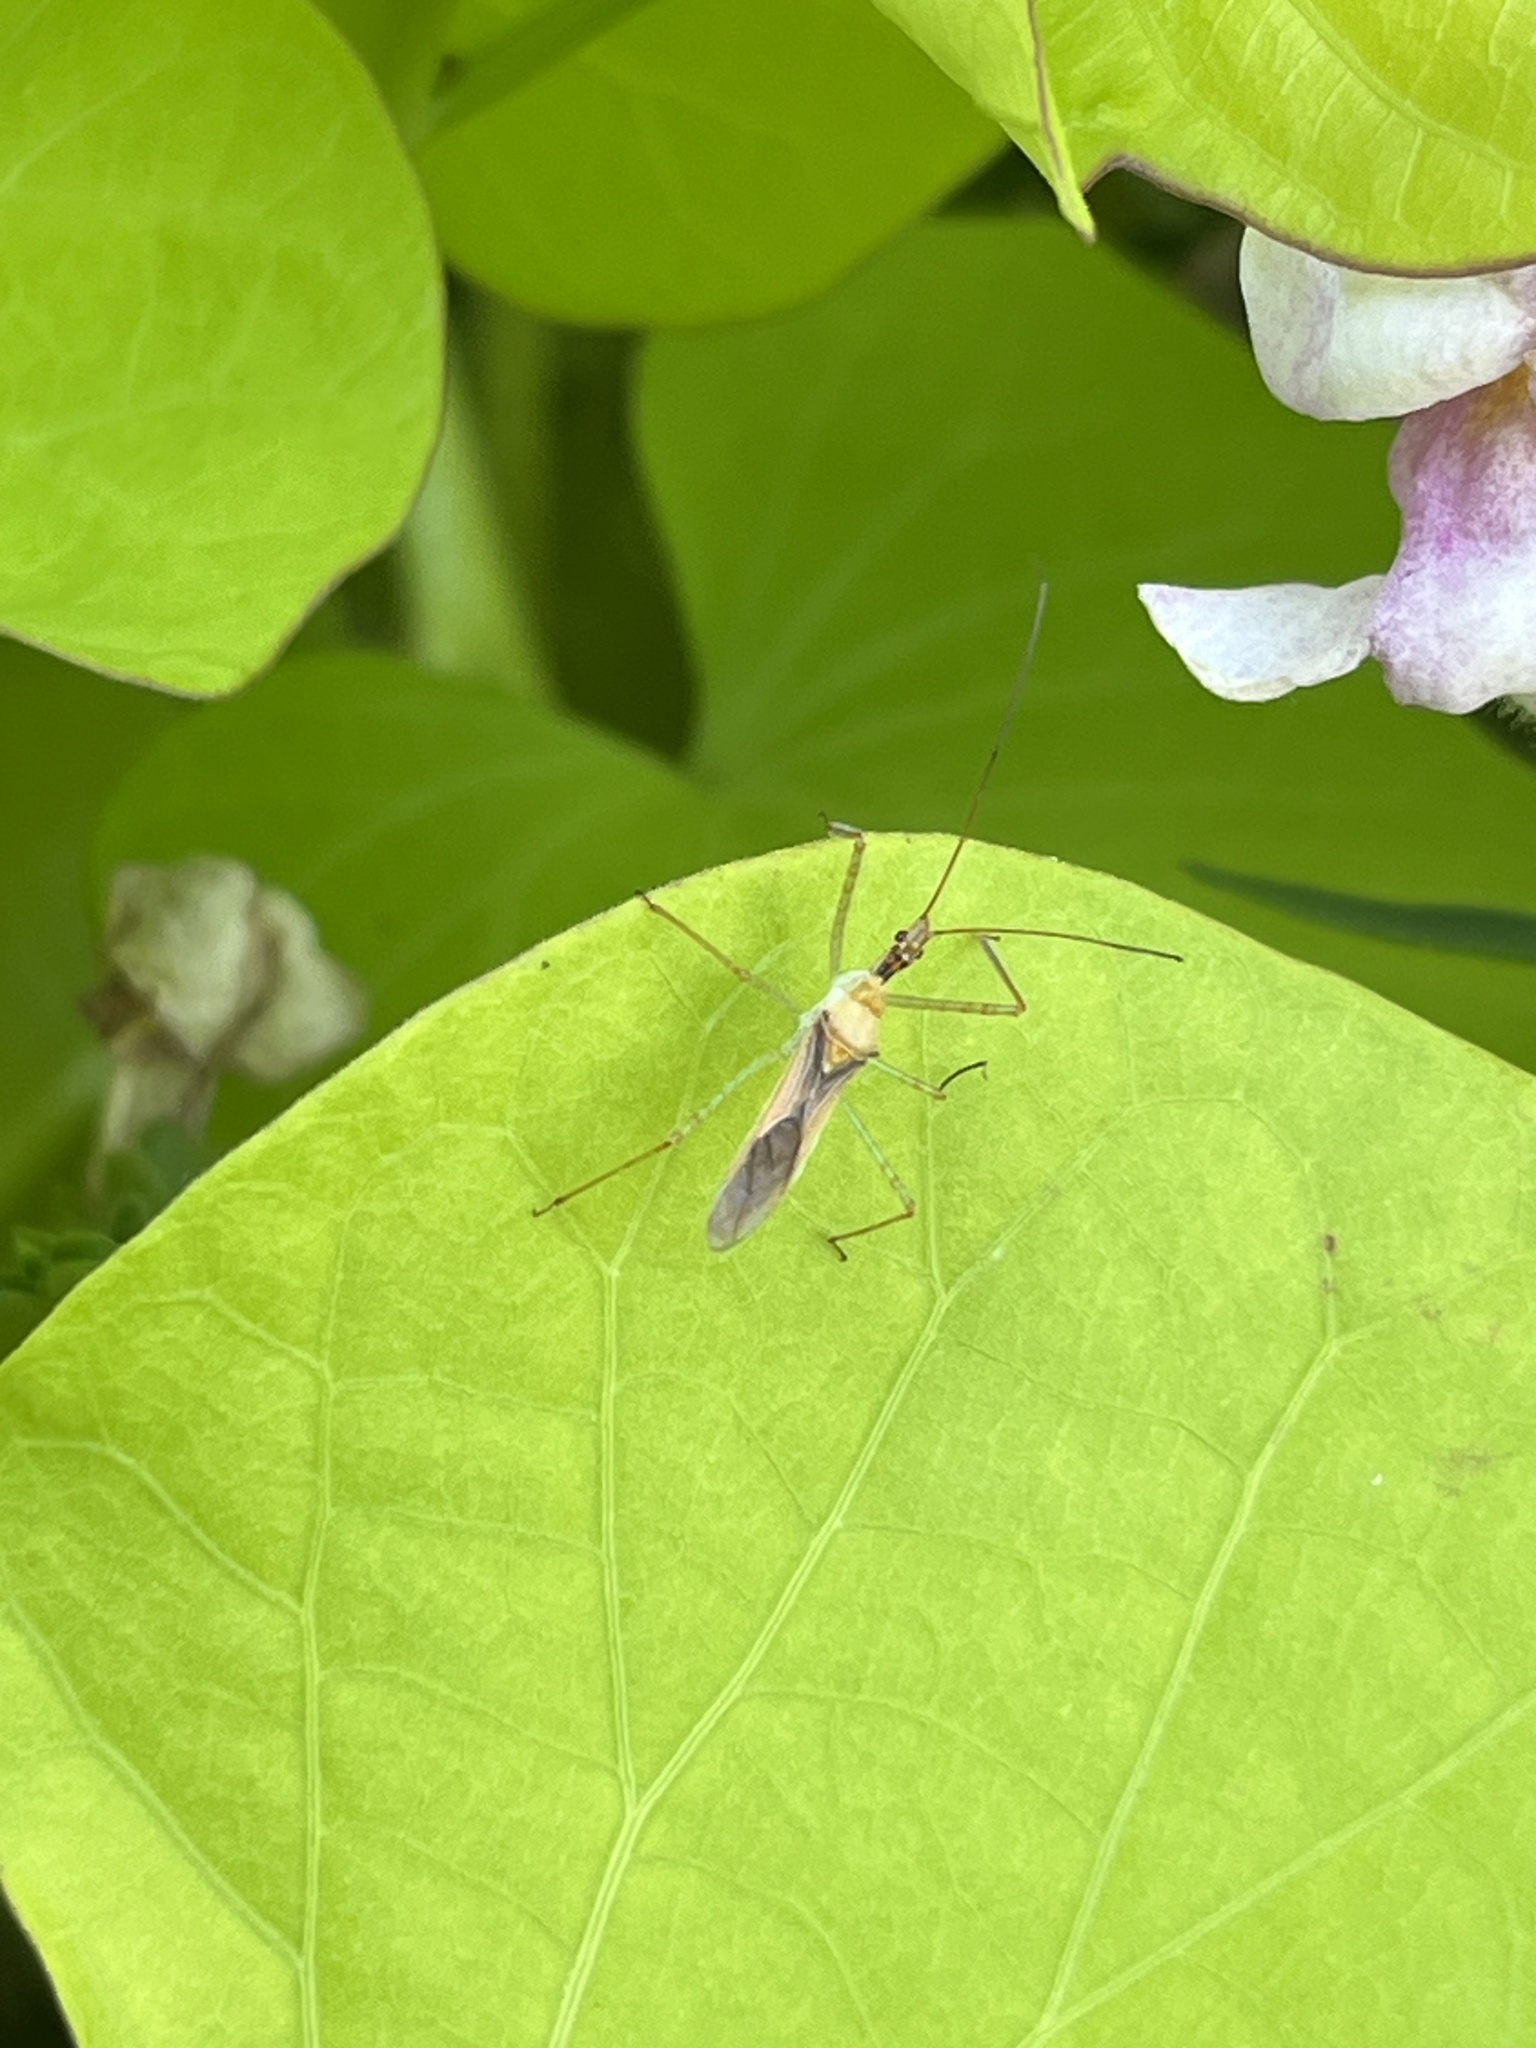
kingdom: Animalia
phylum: Arthropoda
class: Insecta
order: Hemiptera
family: Reduviidae
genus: Zelus
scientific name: Zelus renardii
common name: Assassin bug
